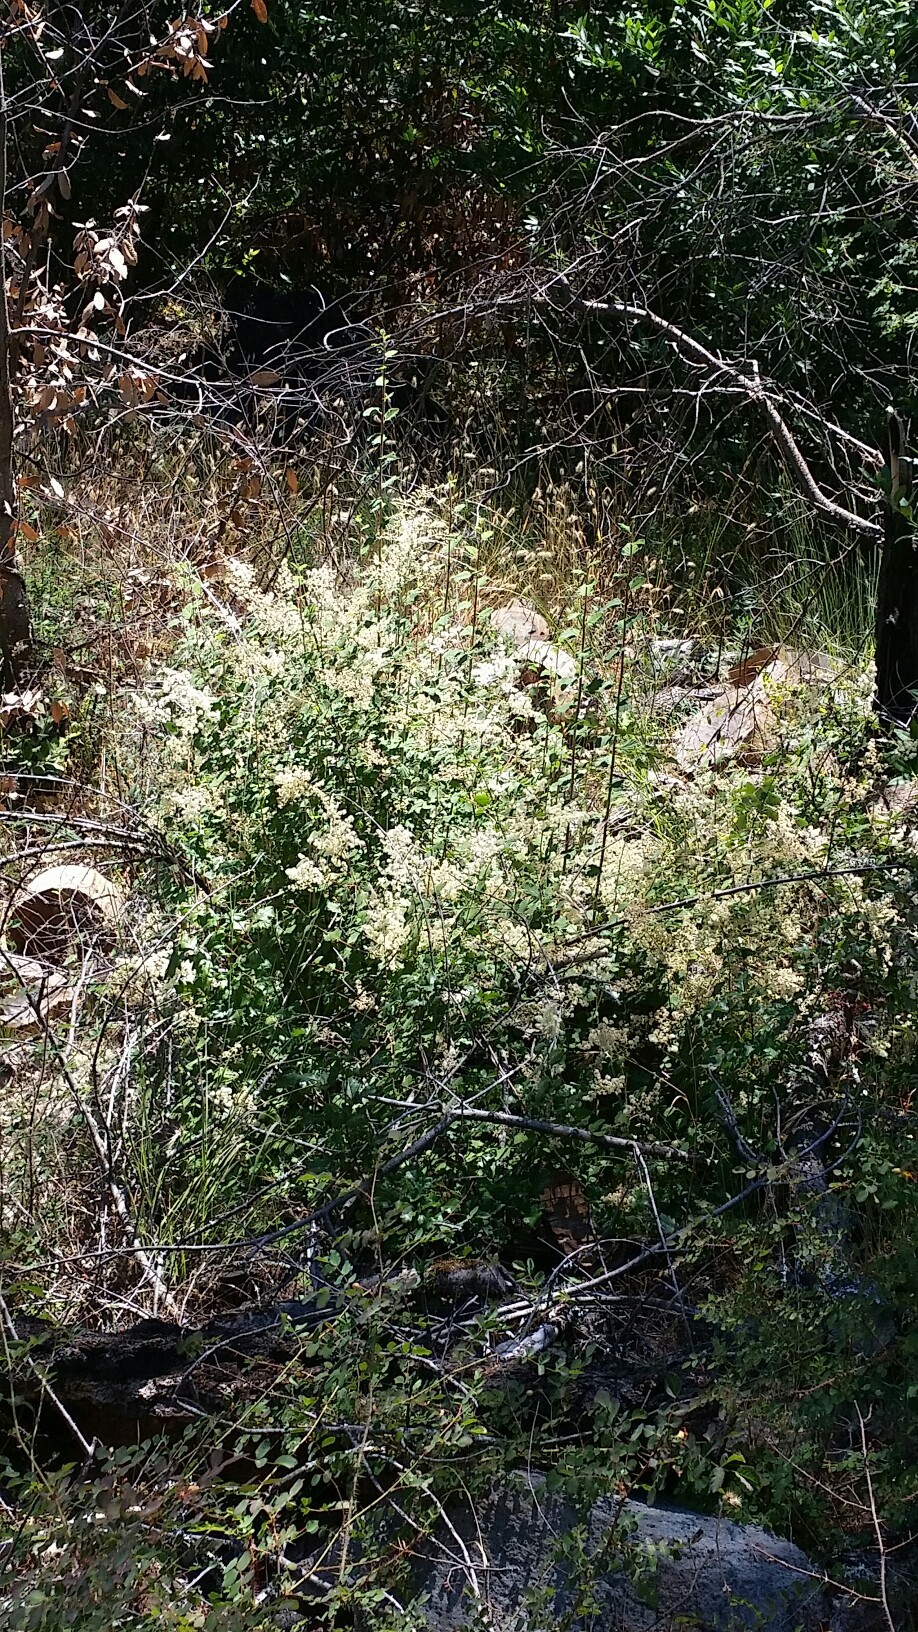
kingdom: Plantae
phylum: Tracheophyta
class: Magnoliopsida
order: Rosales
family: Rosaceae
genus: Holodiscus
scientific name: Holodiscus discolor
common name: Oceanspray
